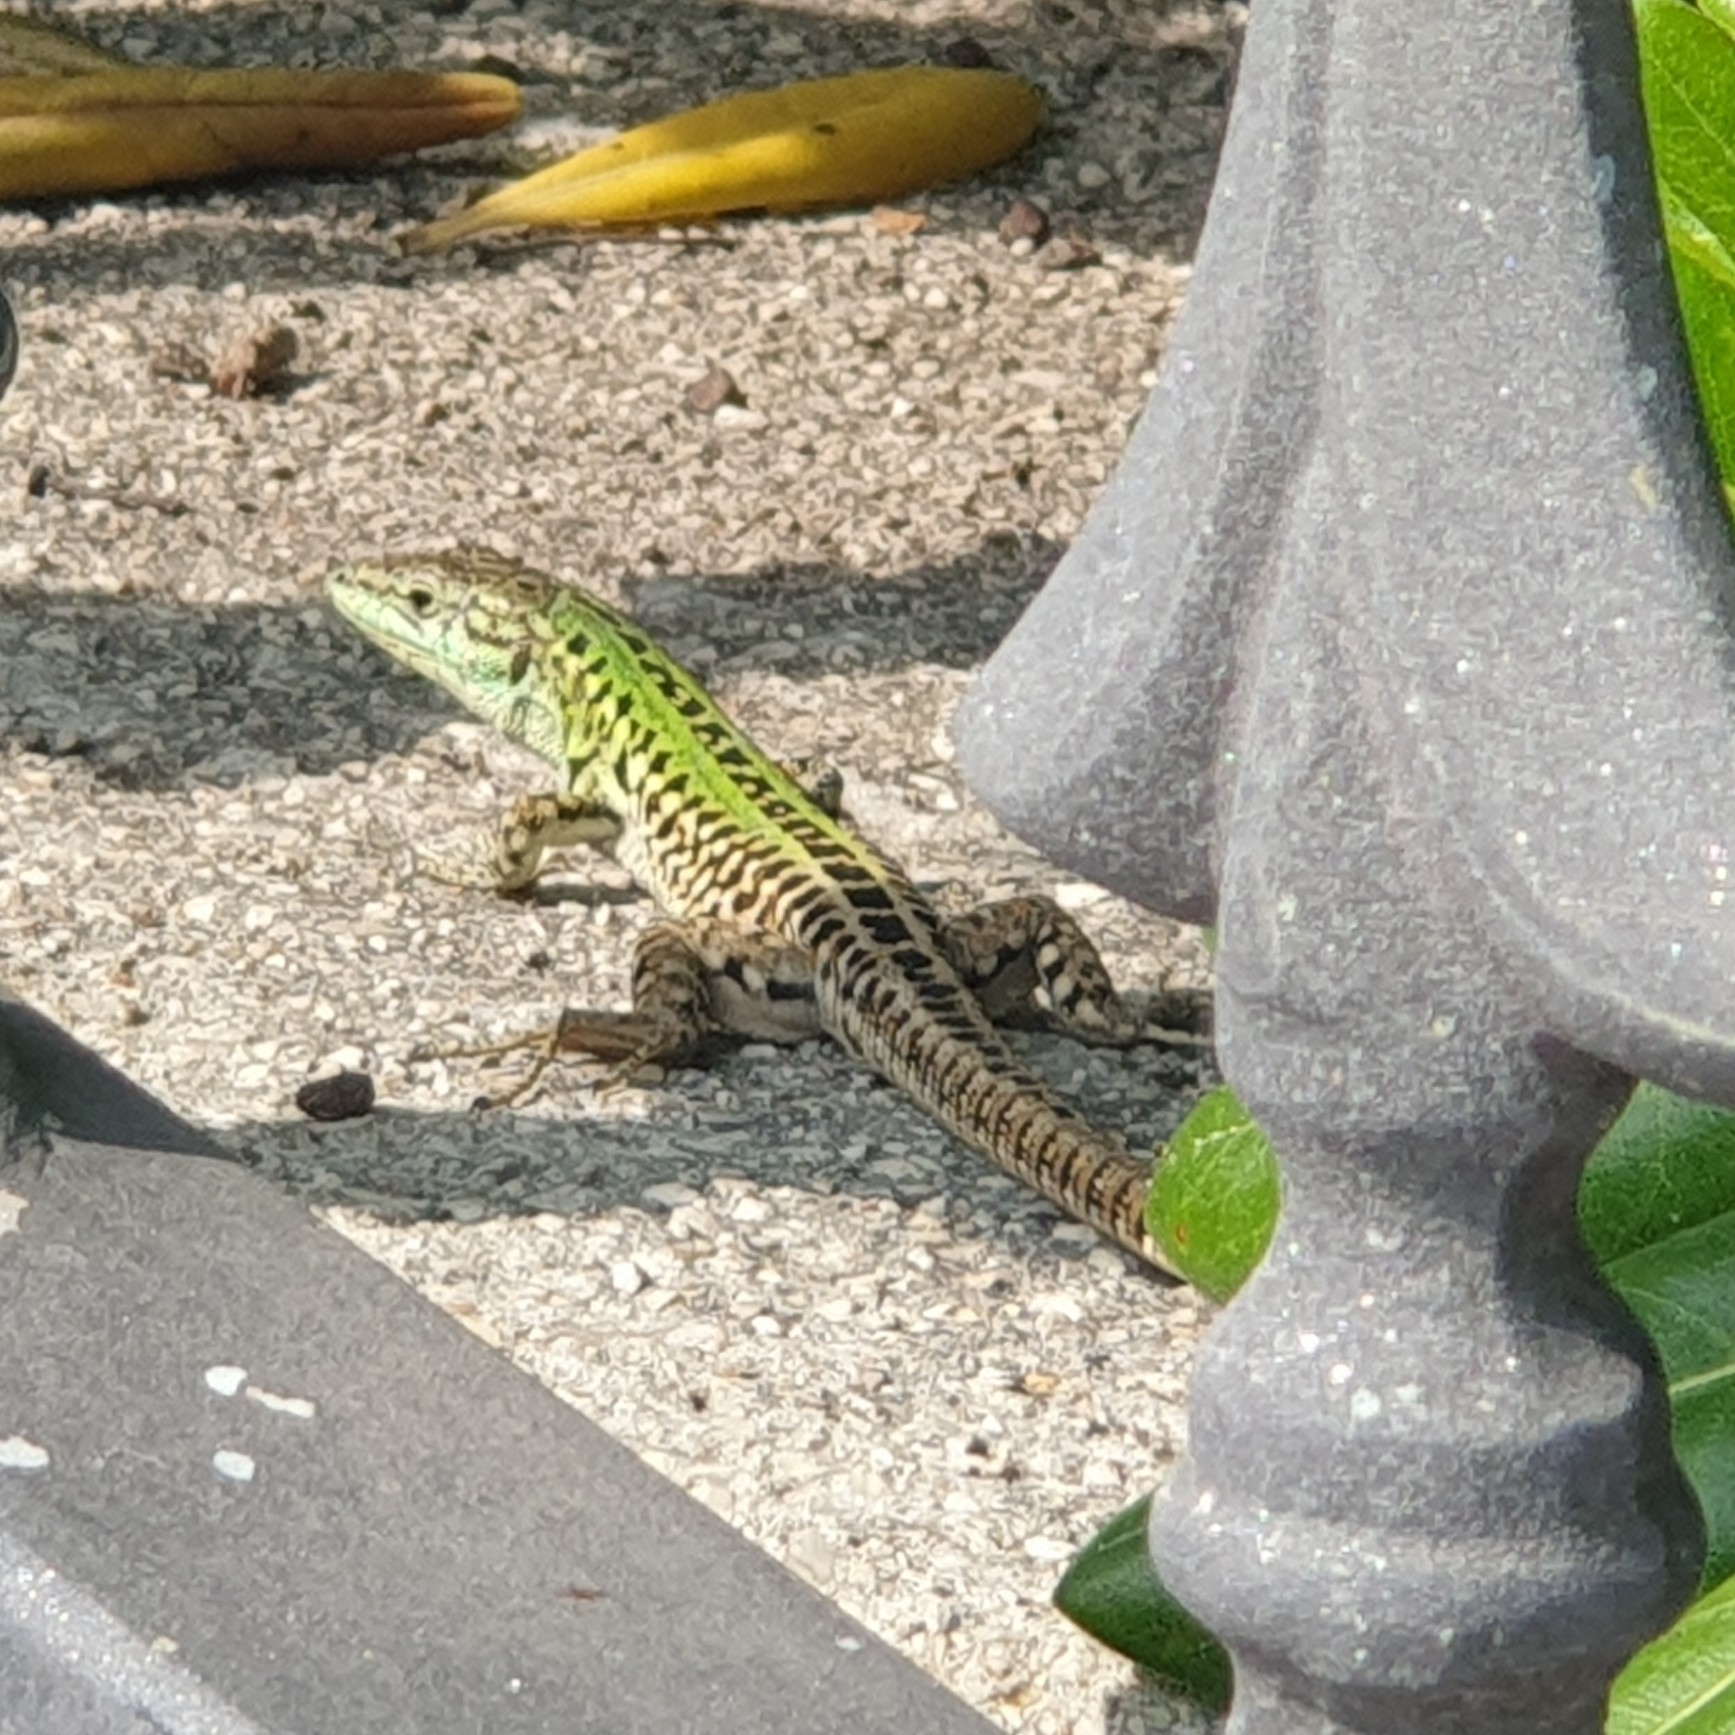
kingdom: Animalia
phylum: Chordata
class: Squamata
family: Lacertidae
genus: Podarcis
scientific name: Podarcis siculus
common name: Italian wall lizard
